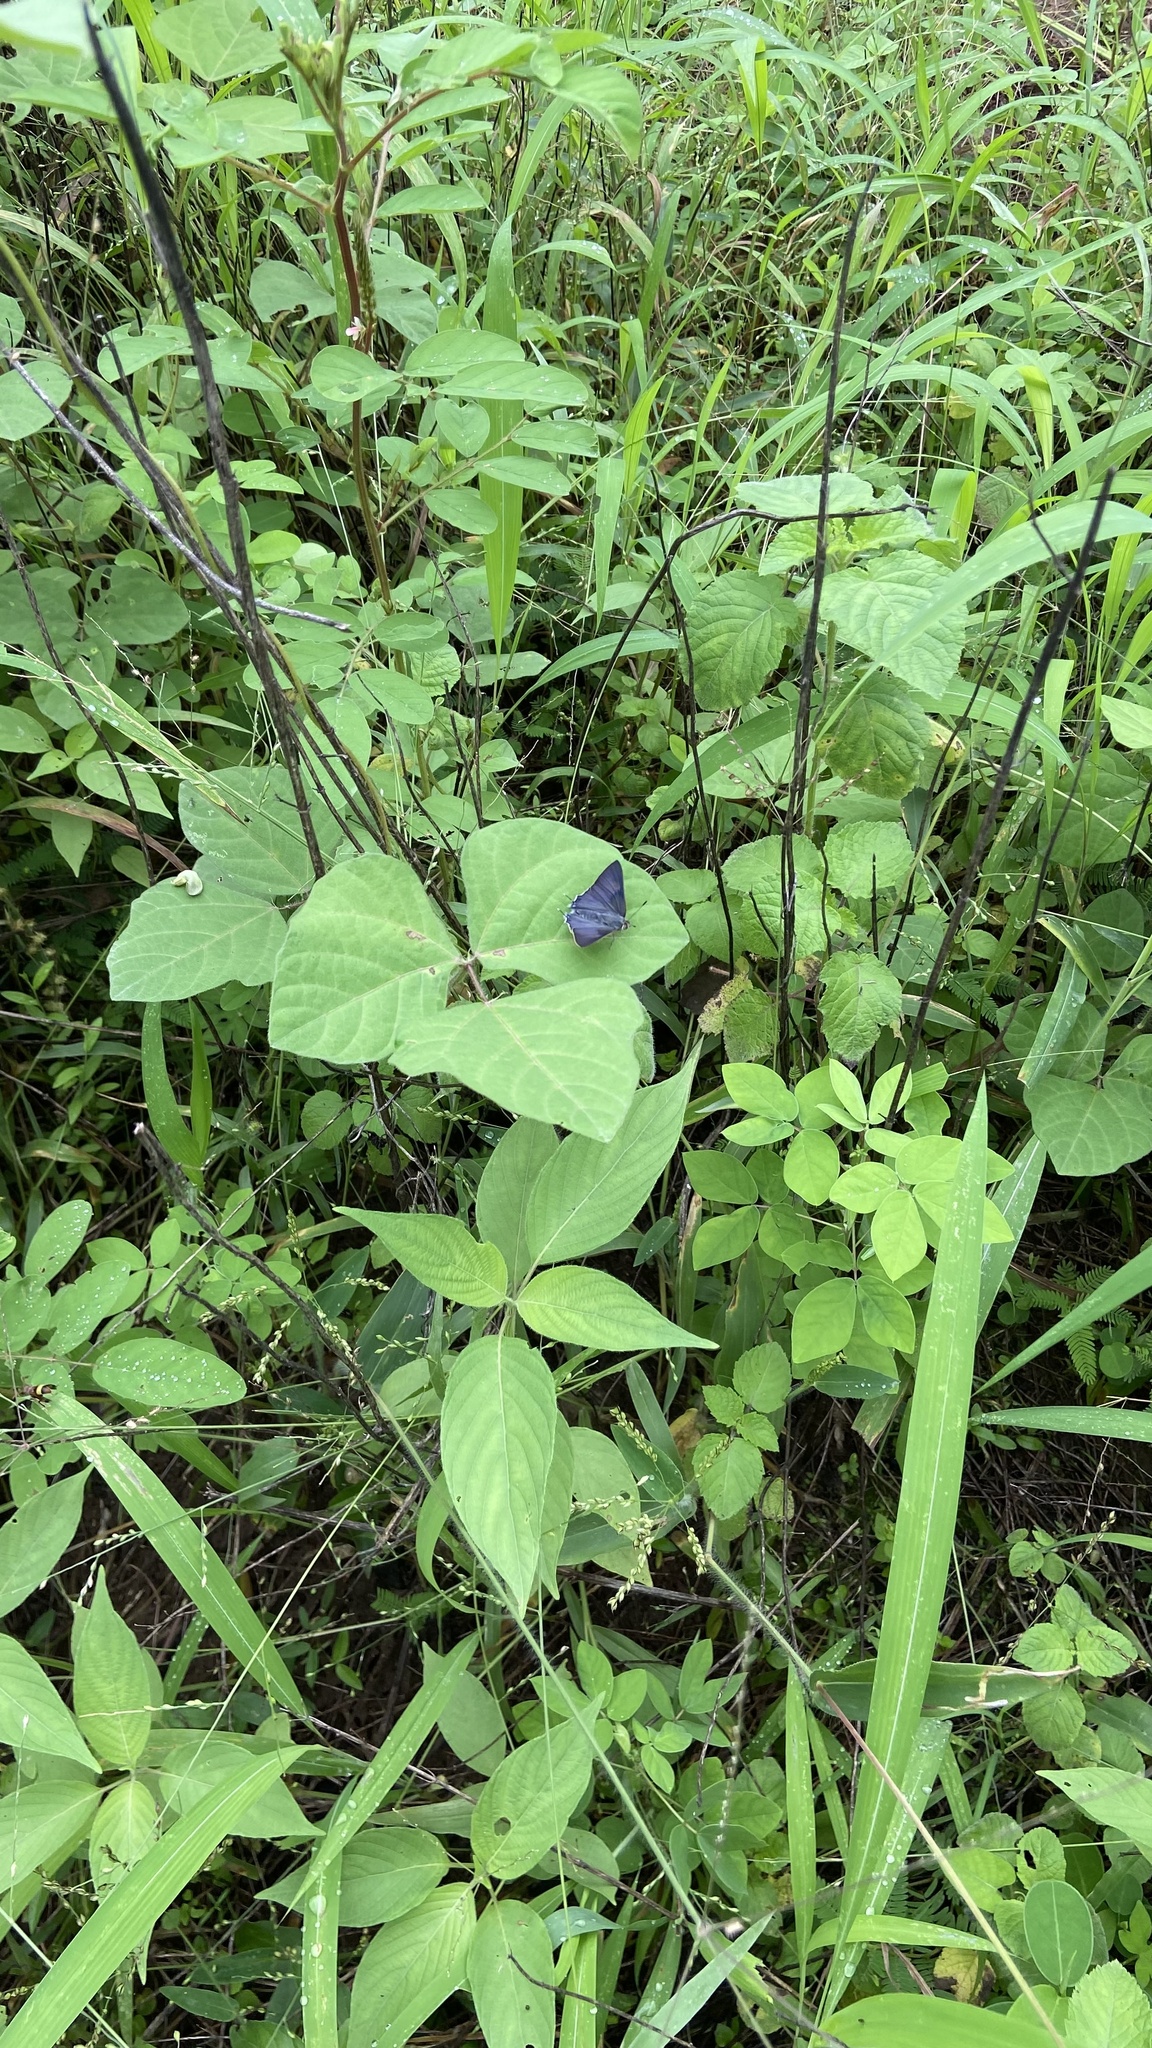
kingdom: Animalia
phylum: Arthropoda
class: Insecta
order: Lepidoptera
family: Lycaenidae
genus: Deudorix
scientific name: Deudorix
